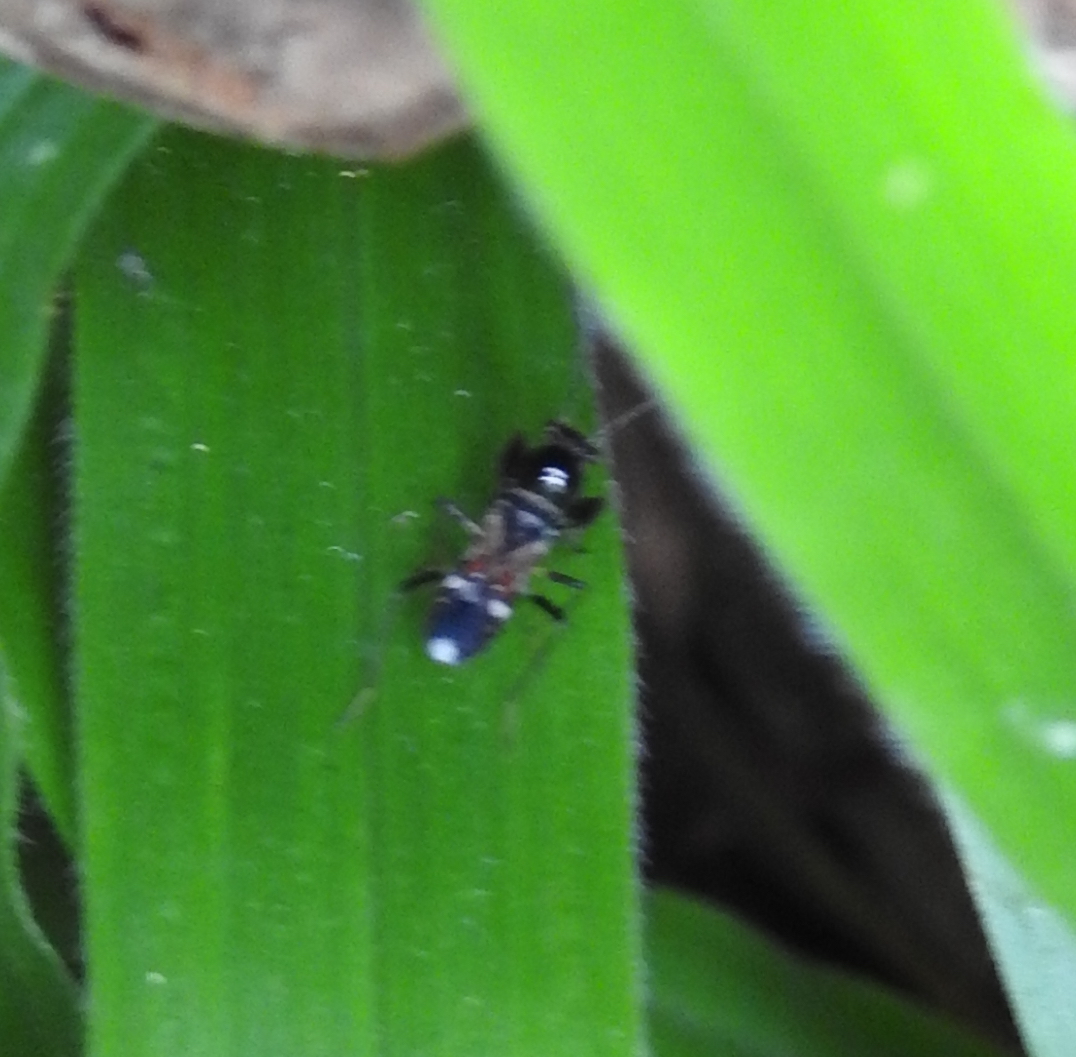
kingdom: Animalia
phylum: Arthropoda
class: Insecta
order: Hemiptera
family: Rhyparochromidae
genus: Caridops
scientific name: Caridops globicollis
